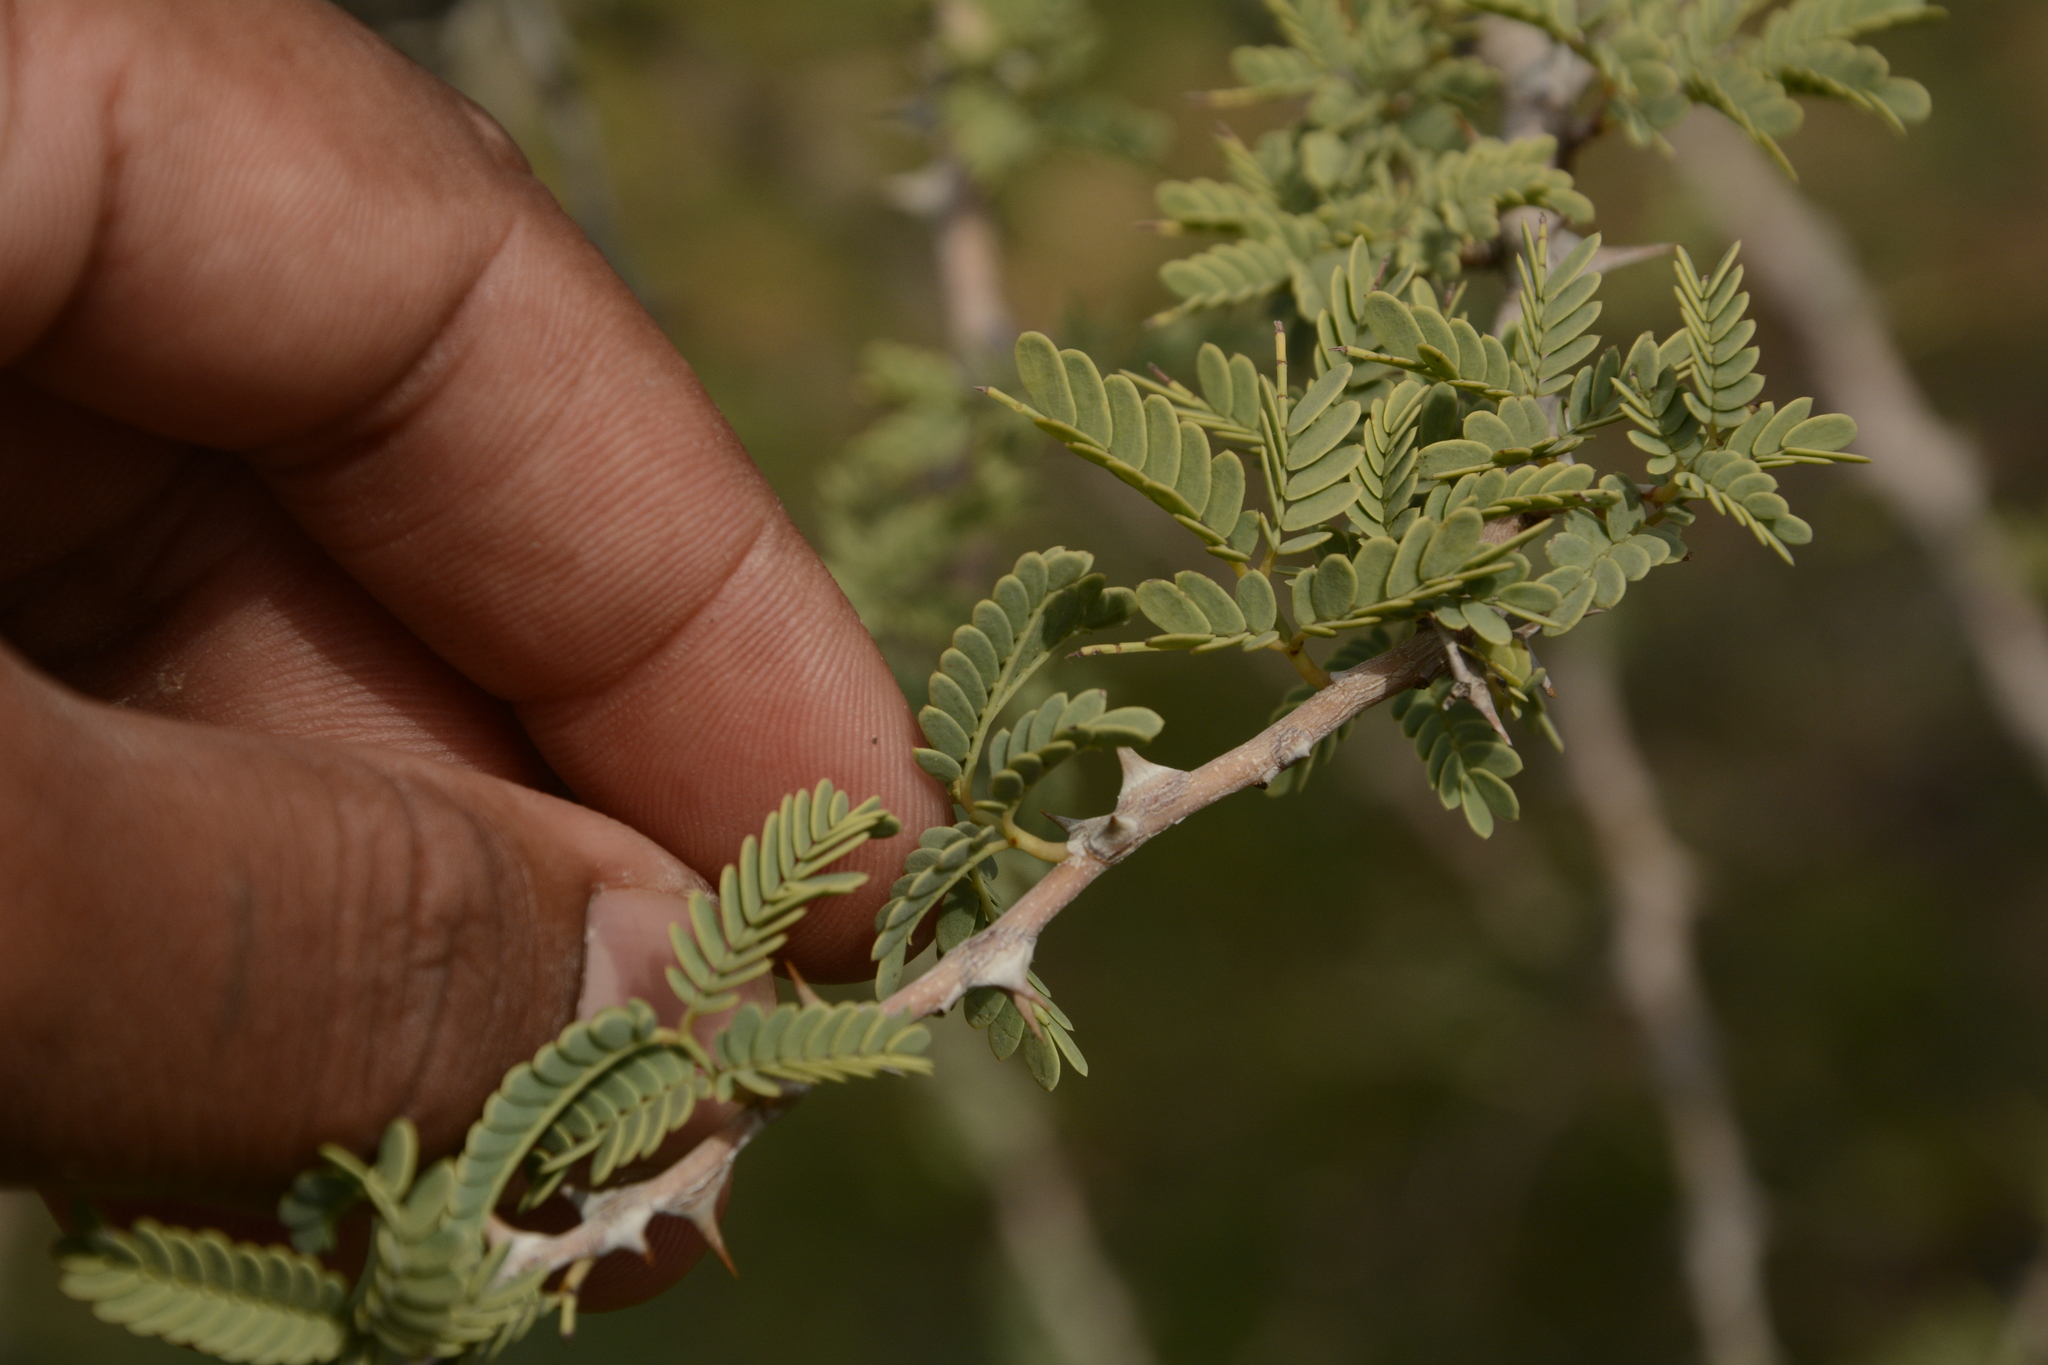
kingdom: Plantae
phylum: Tracheophyta
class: Magnoliopsida
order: Fabales
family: Fabaceae
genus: Prosopis
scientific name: Prosopis cineraria
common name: Jandi
